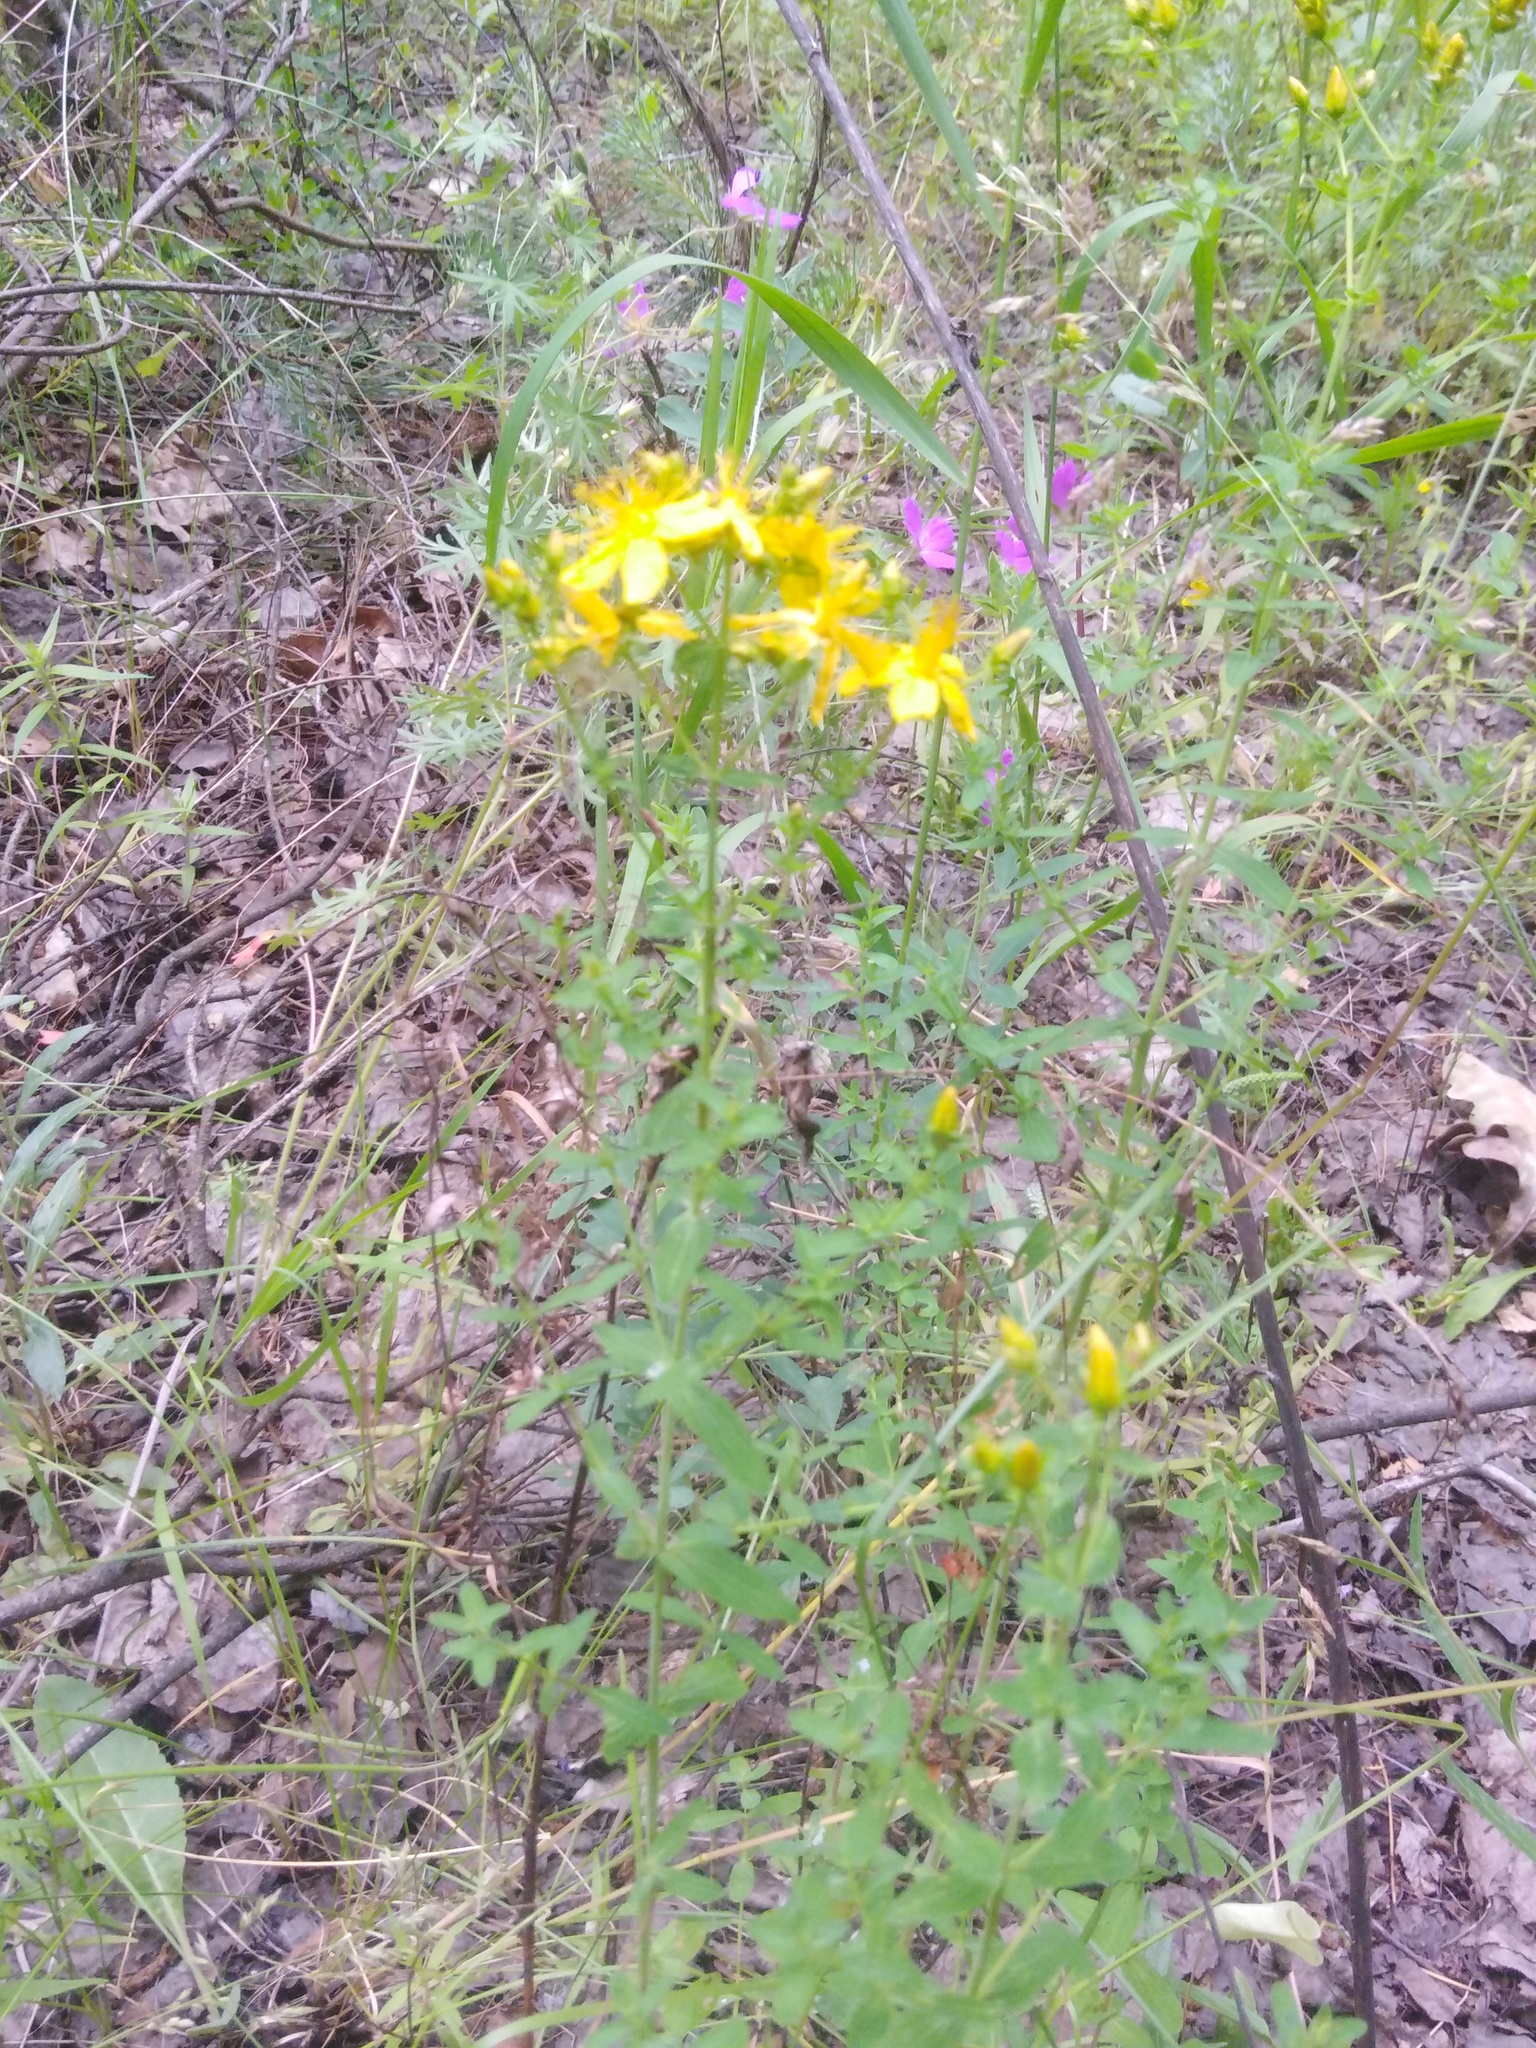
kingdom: Plantae
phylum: Tracheophyta
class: Magnoliopsida
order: Malpighiales
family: Hypericaceae
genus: Hypericum
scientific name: Hypericum perforatum
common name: Common st. johnswort
